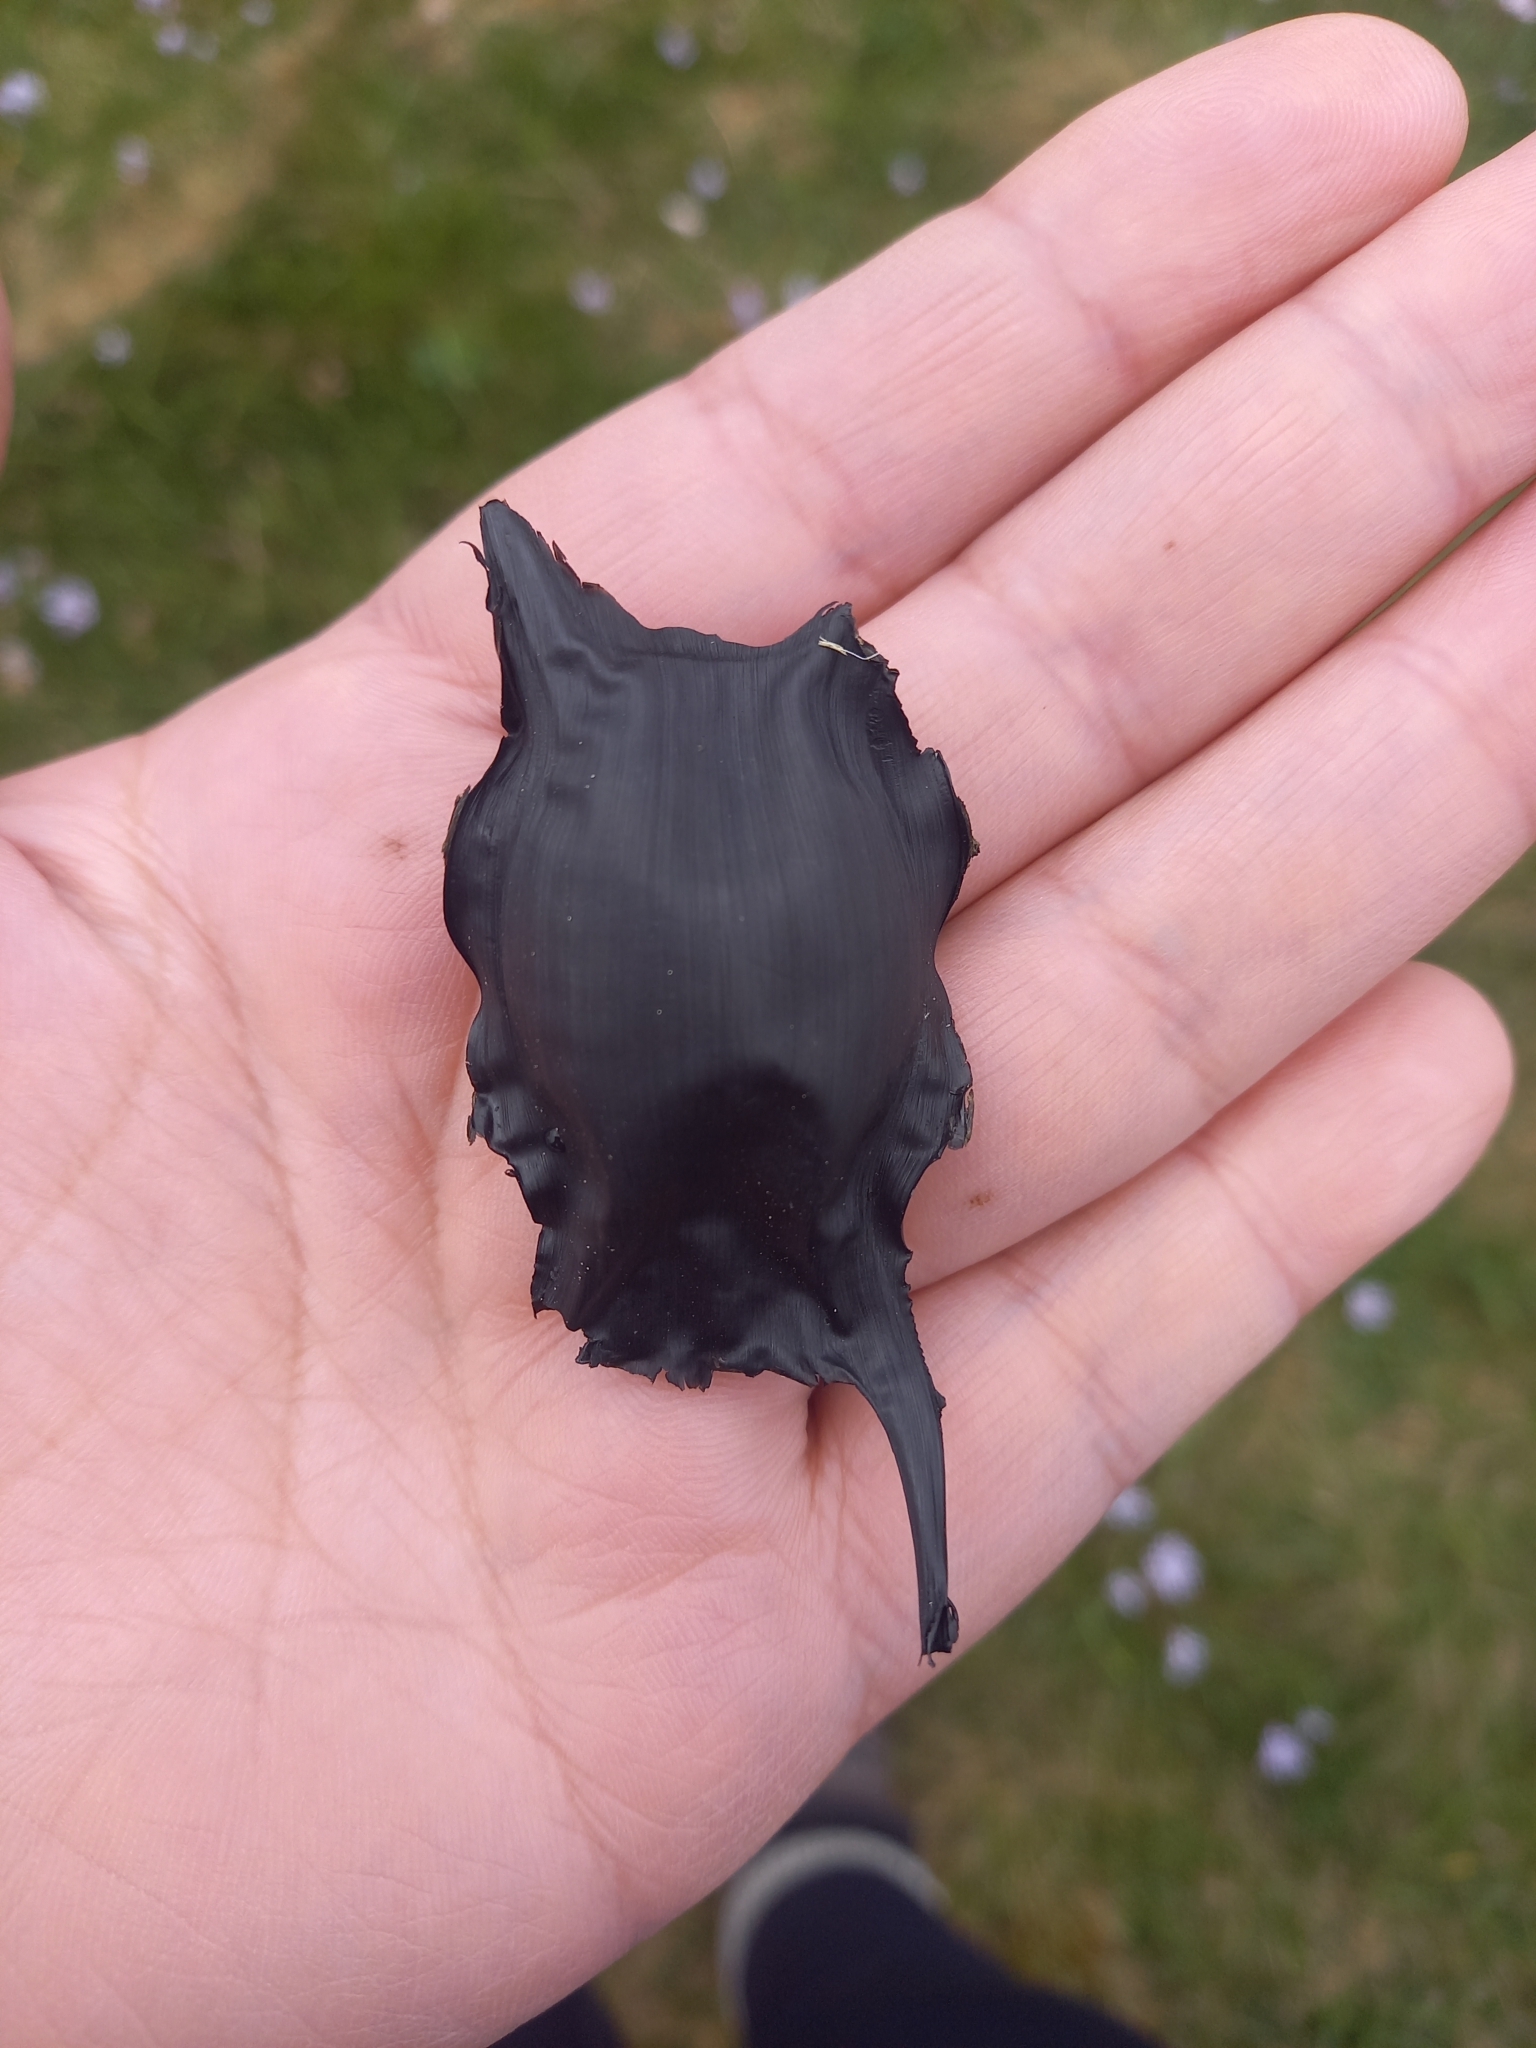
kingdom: Animalia
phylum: Chordata
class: Elasmobranchii
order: Rajiformes
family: Rajidae
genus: Raja
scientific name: Raja clavata
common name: Thornback ray
